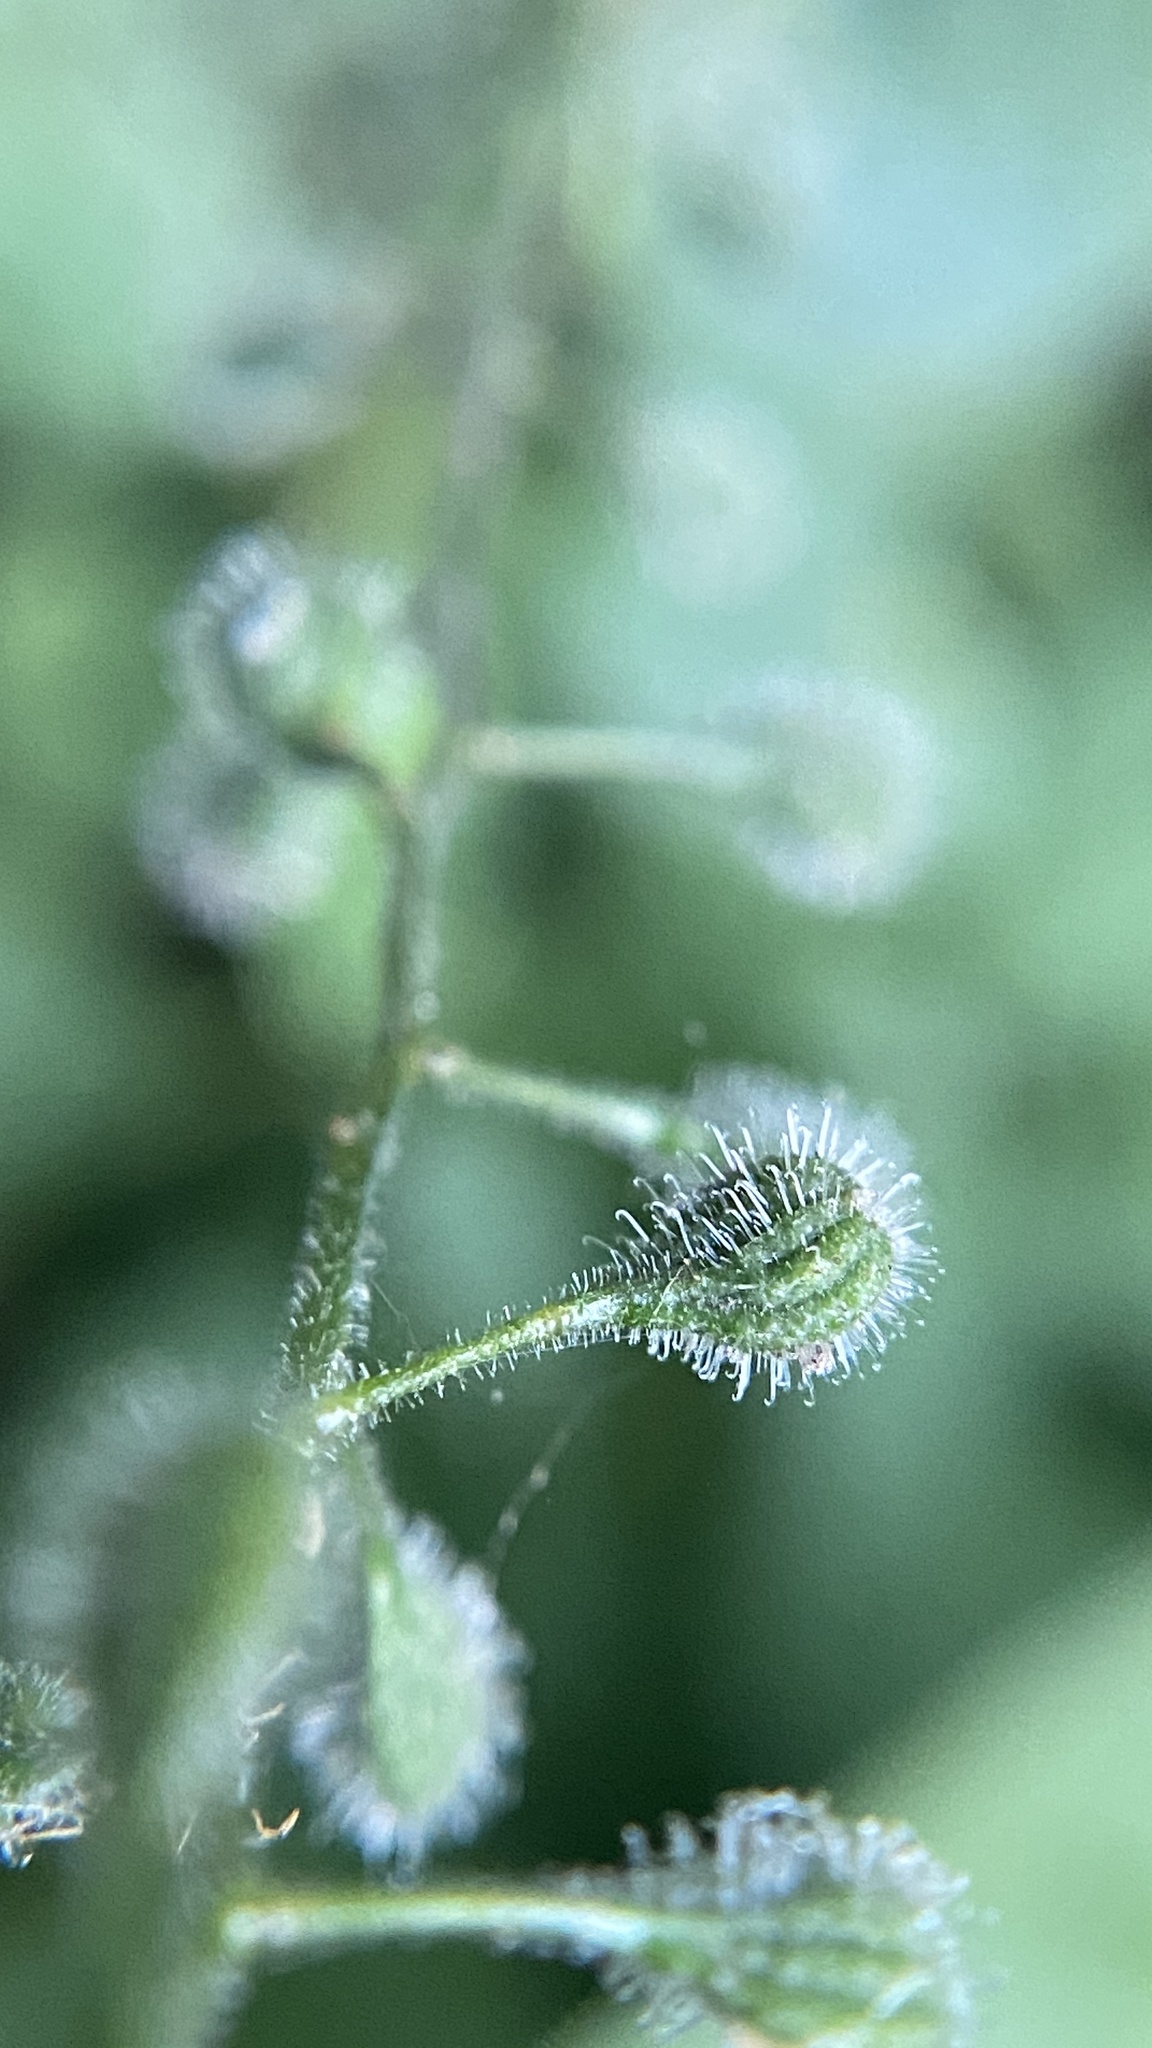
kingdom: Plantae
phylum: Tracheophyta
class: Magnoliopsida
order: Myrtales
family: Onagraceae
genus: Circaea
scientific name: Circaea canadensis
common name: Broad-leaved enchanter's nightshade
